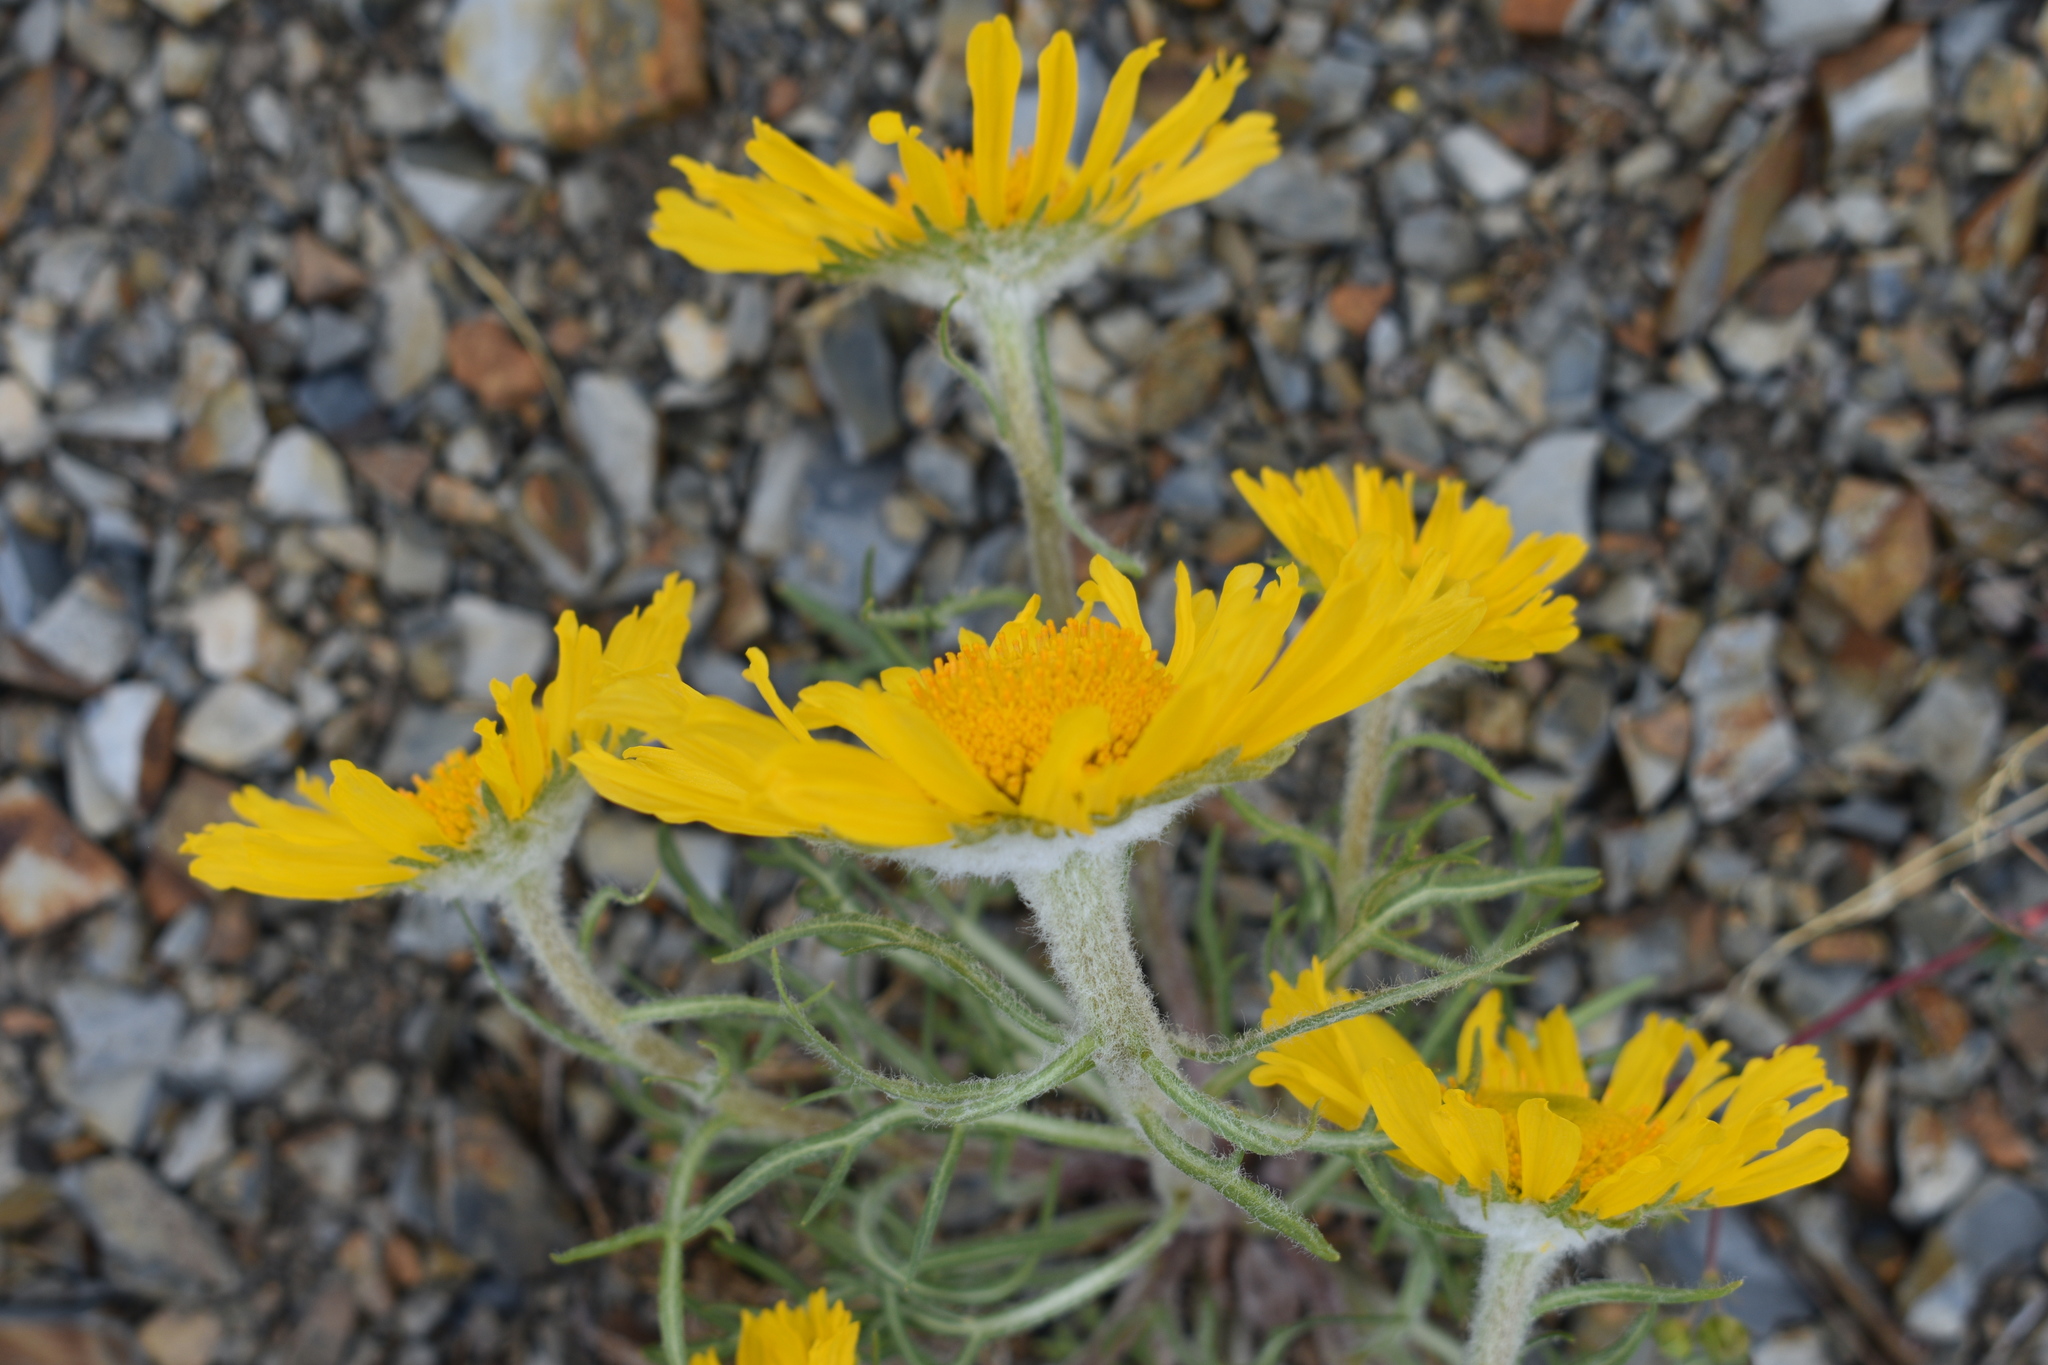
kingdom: Plantae
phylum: Tracheophyta
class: Magnoliopsida
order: Asterales
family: Asteraceae
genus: Hymenoxys
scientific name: Hymenoxys grandiflora
